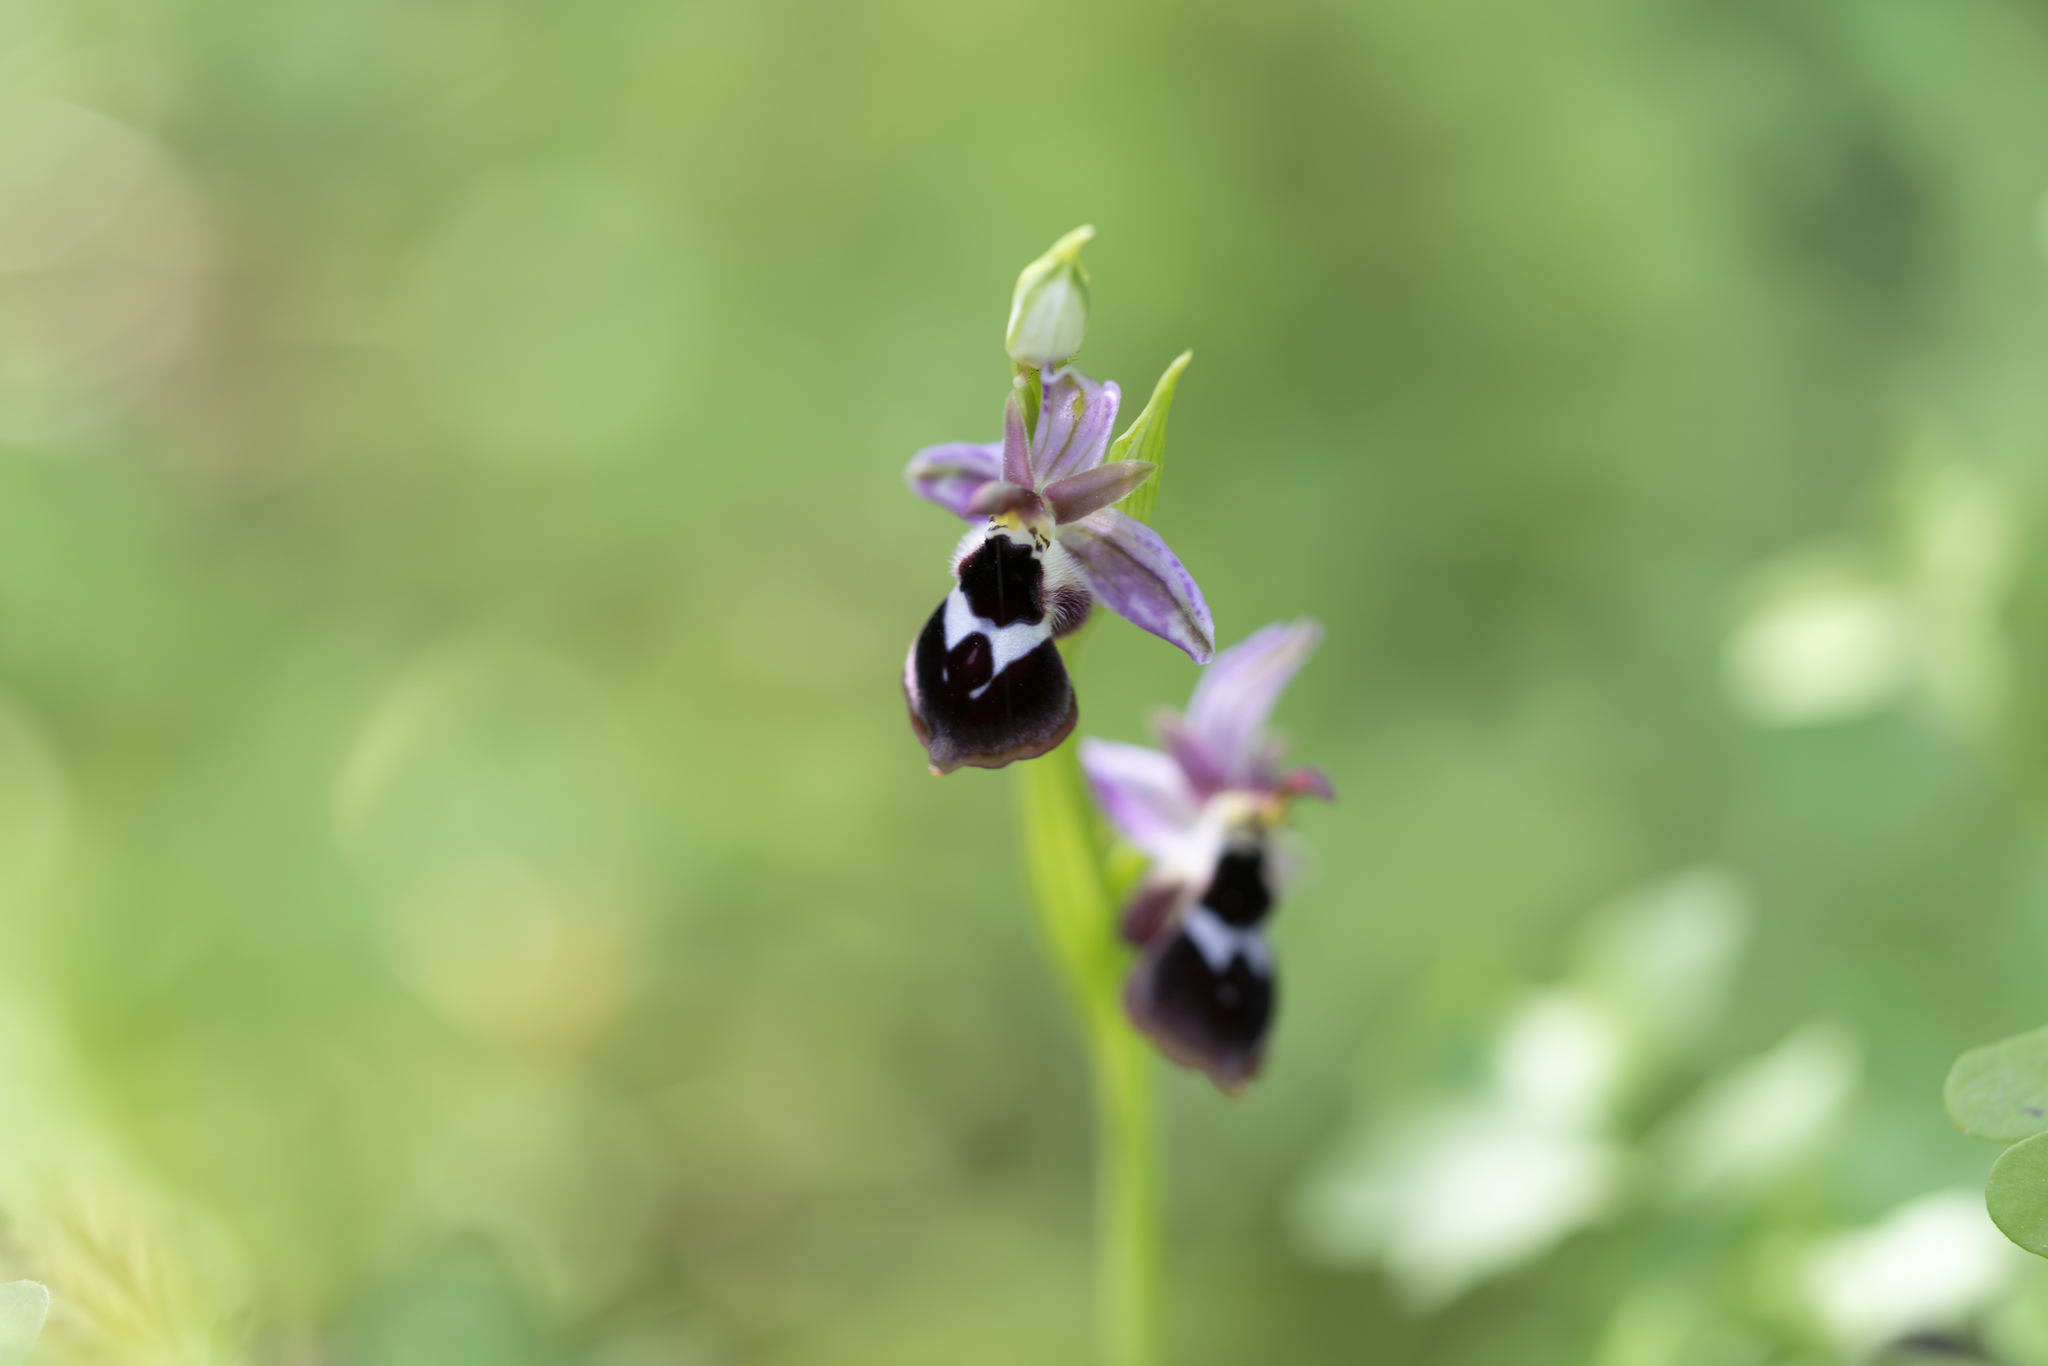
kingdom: Plantae
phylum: Tracheophyta
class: Liliopsida
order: Asparagales
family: Orchidaceae
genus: Ophrys
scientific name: Ophrys reinholdii
